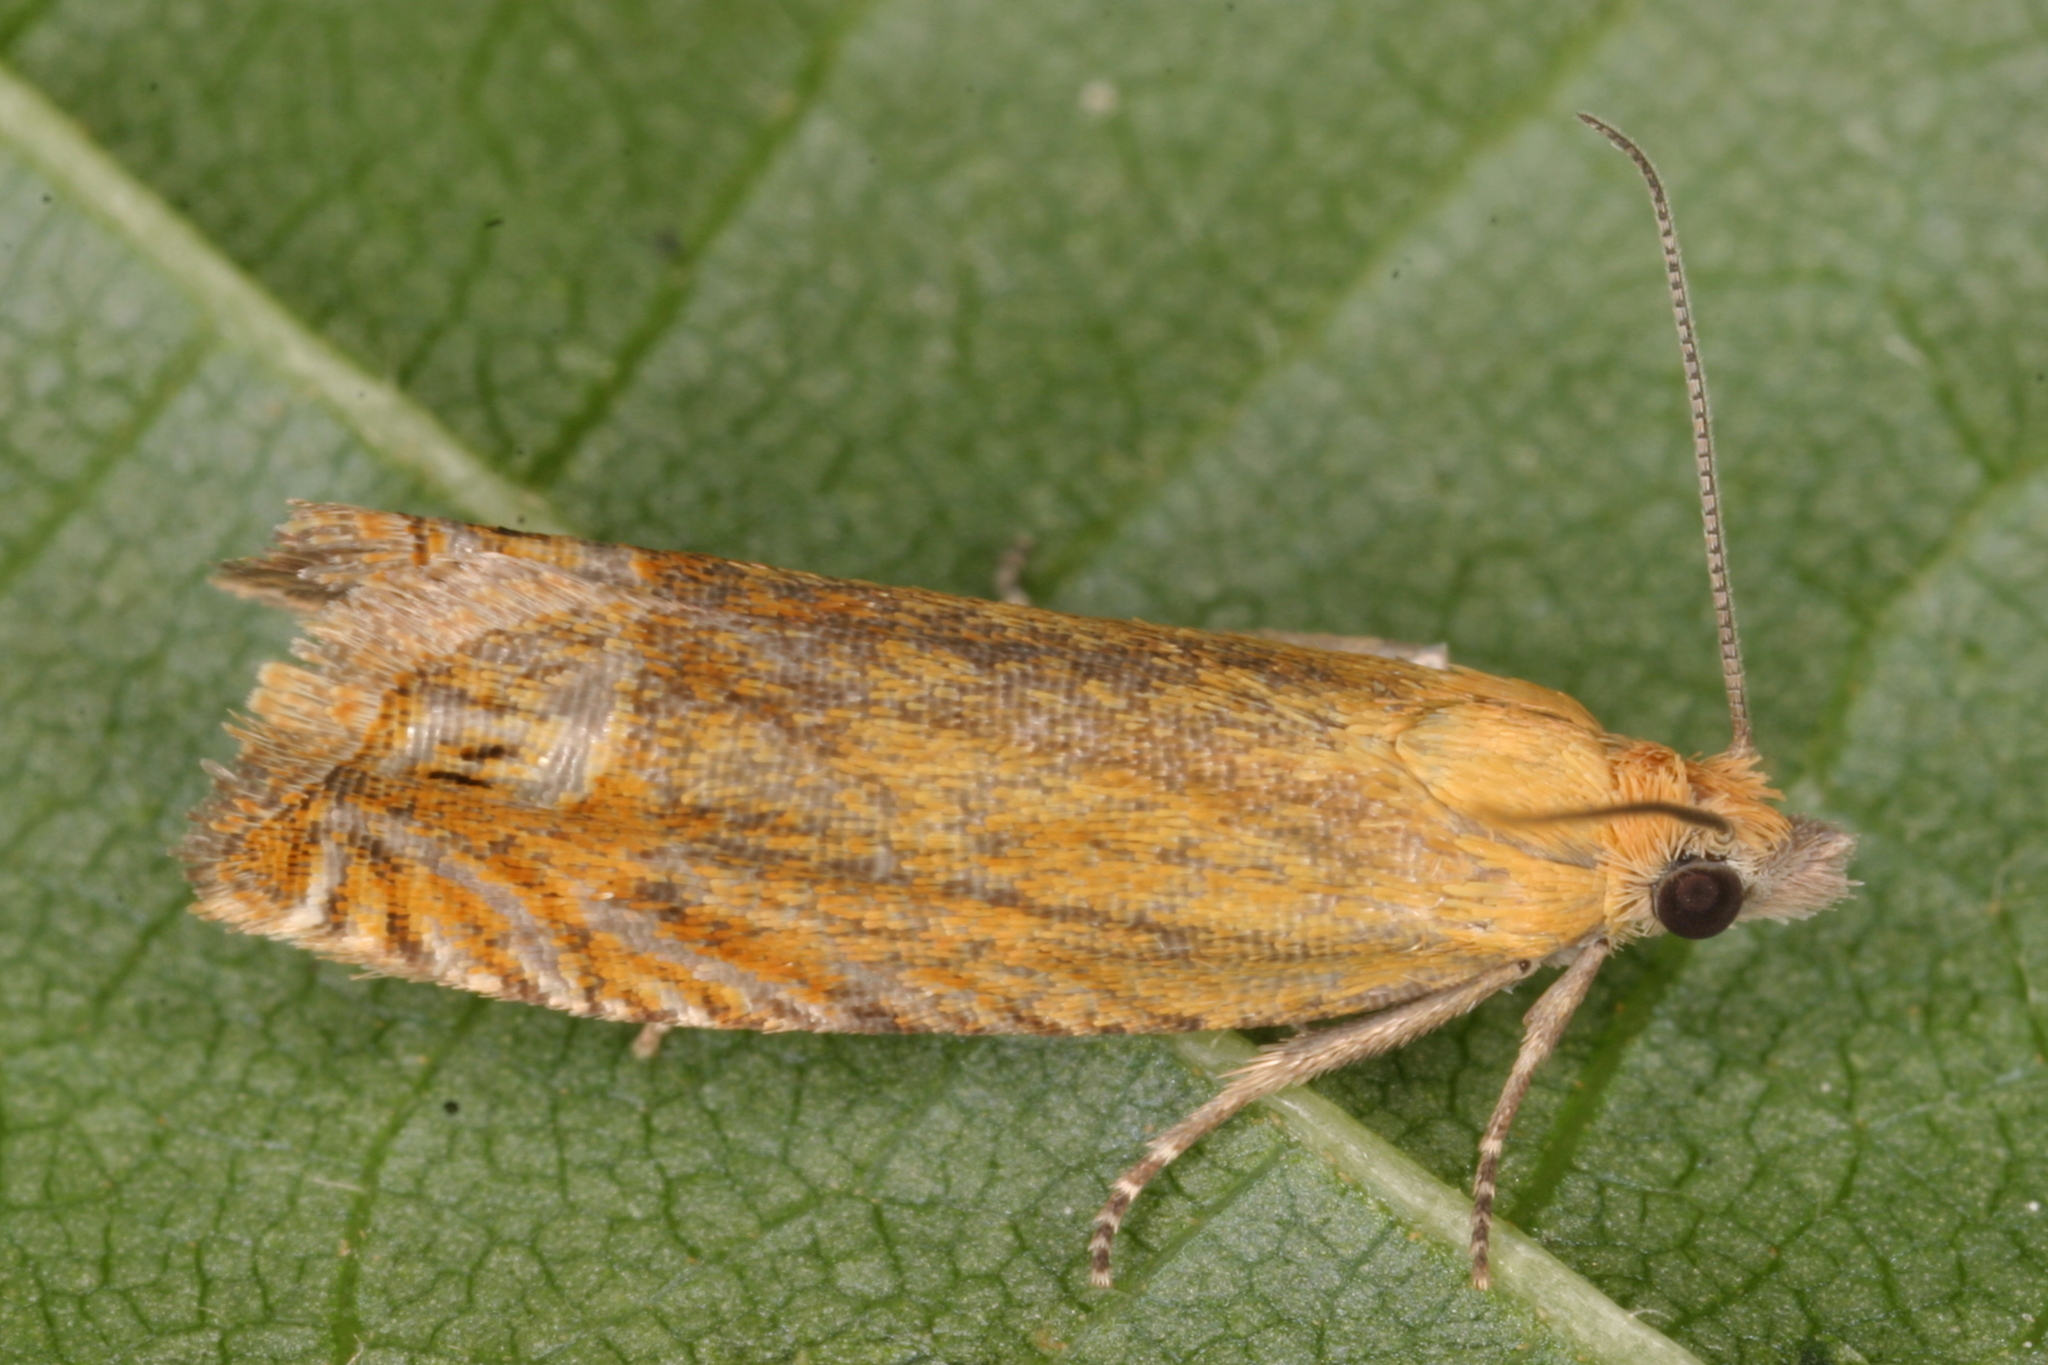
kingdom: Animalia
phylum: Arthropoda
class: Insecta
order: Lepidoptera
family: Tortricidae
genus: Lathronympha
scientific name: Lathronympha strigana
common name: Red piercer
